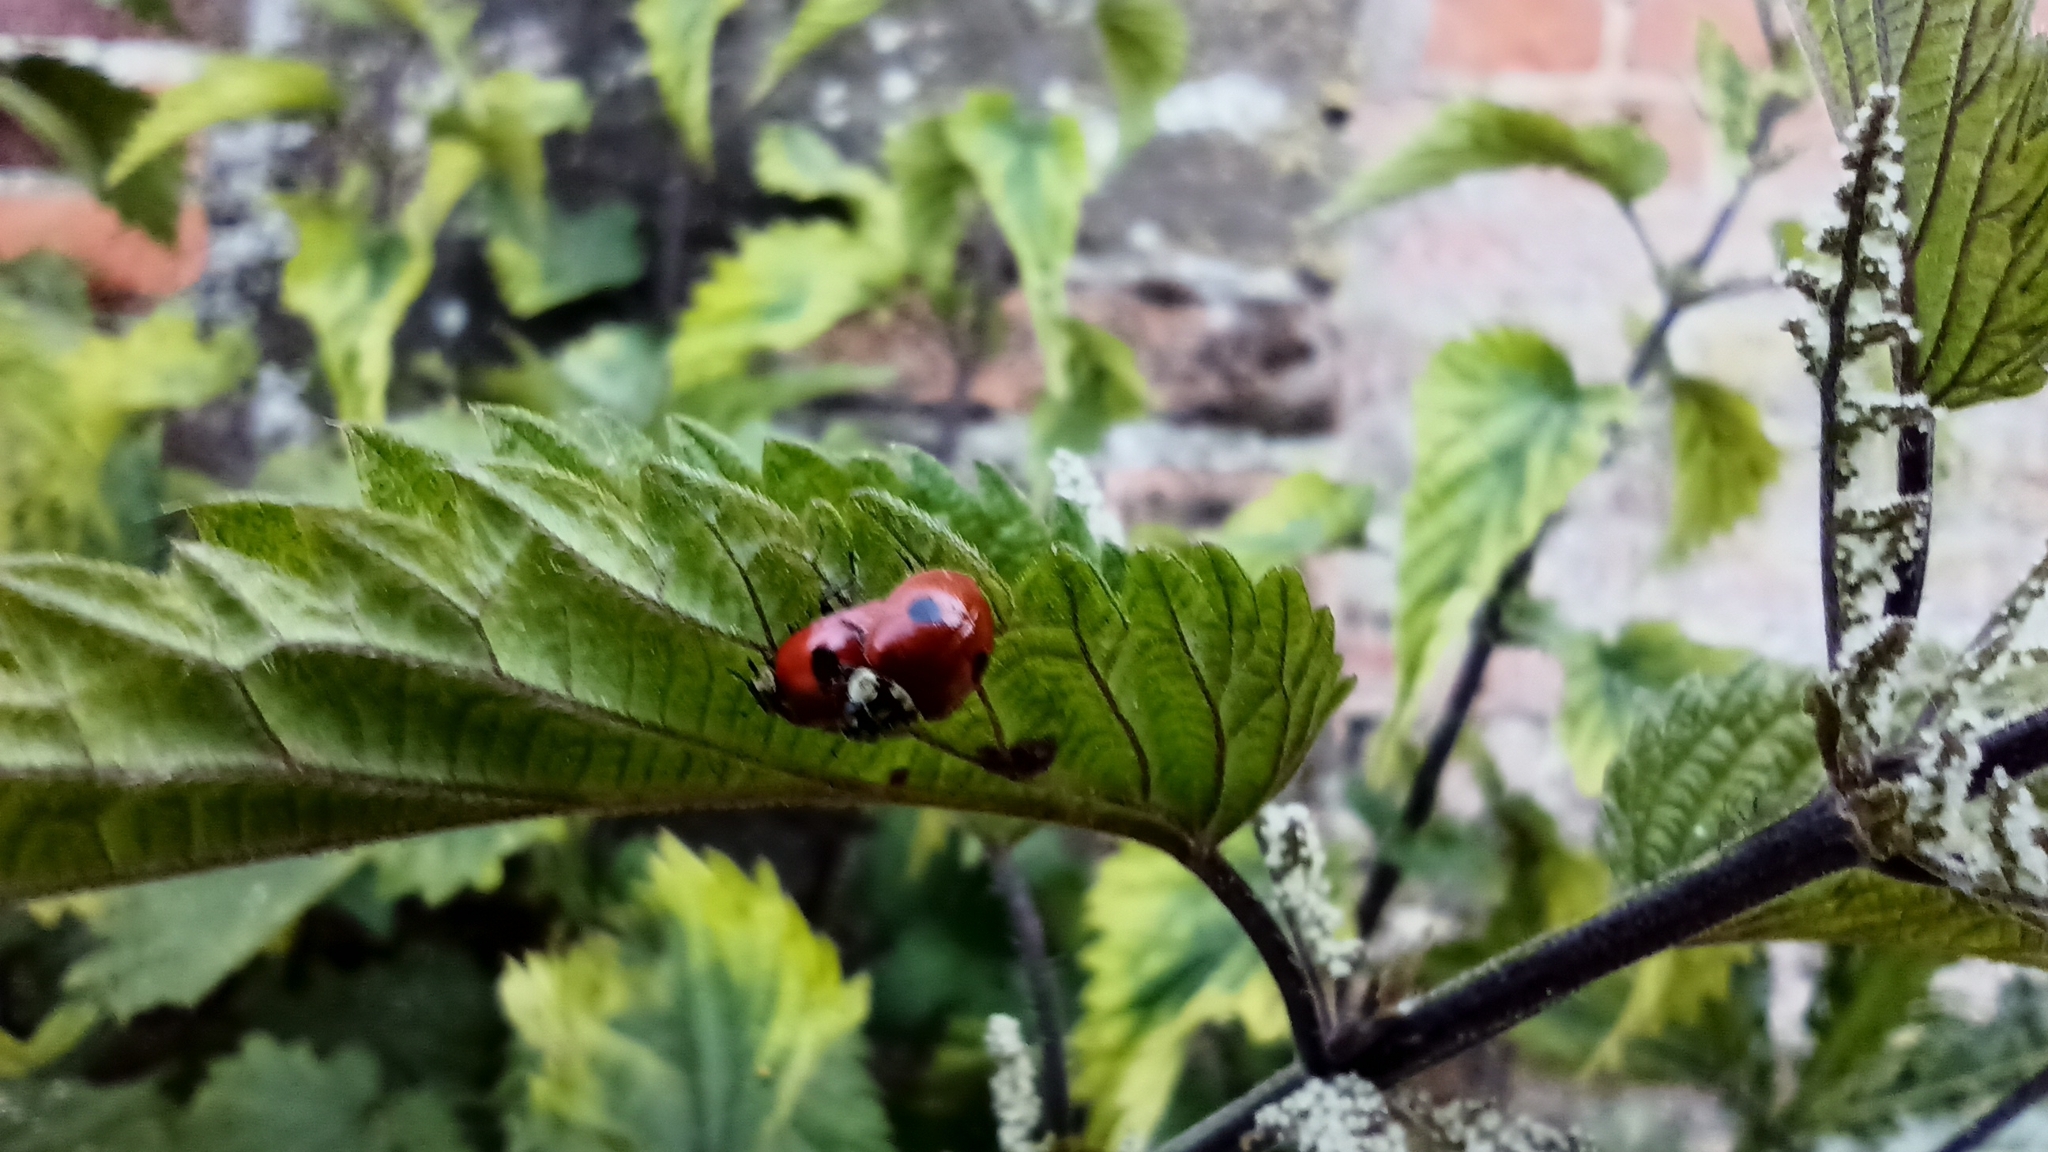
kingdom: Animalia
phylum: Arthropoda
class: Insecta
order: Coleoptera
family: Coccinellidae
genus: Adalia
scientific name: Adalia bipunctata
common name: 2-spot ladybird
